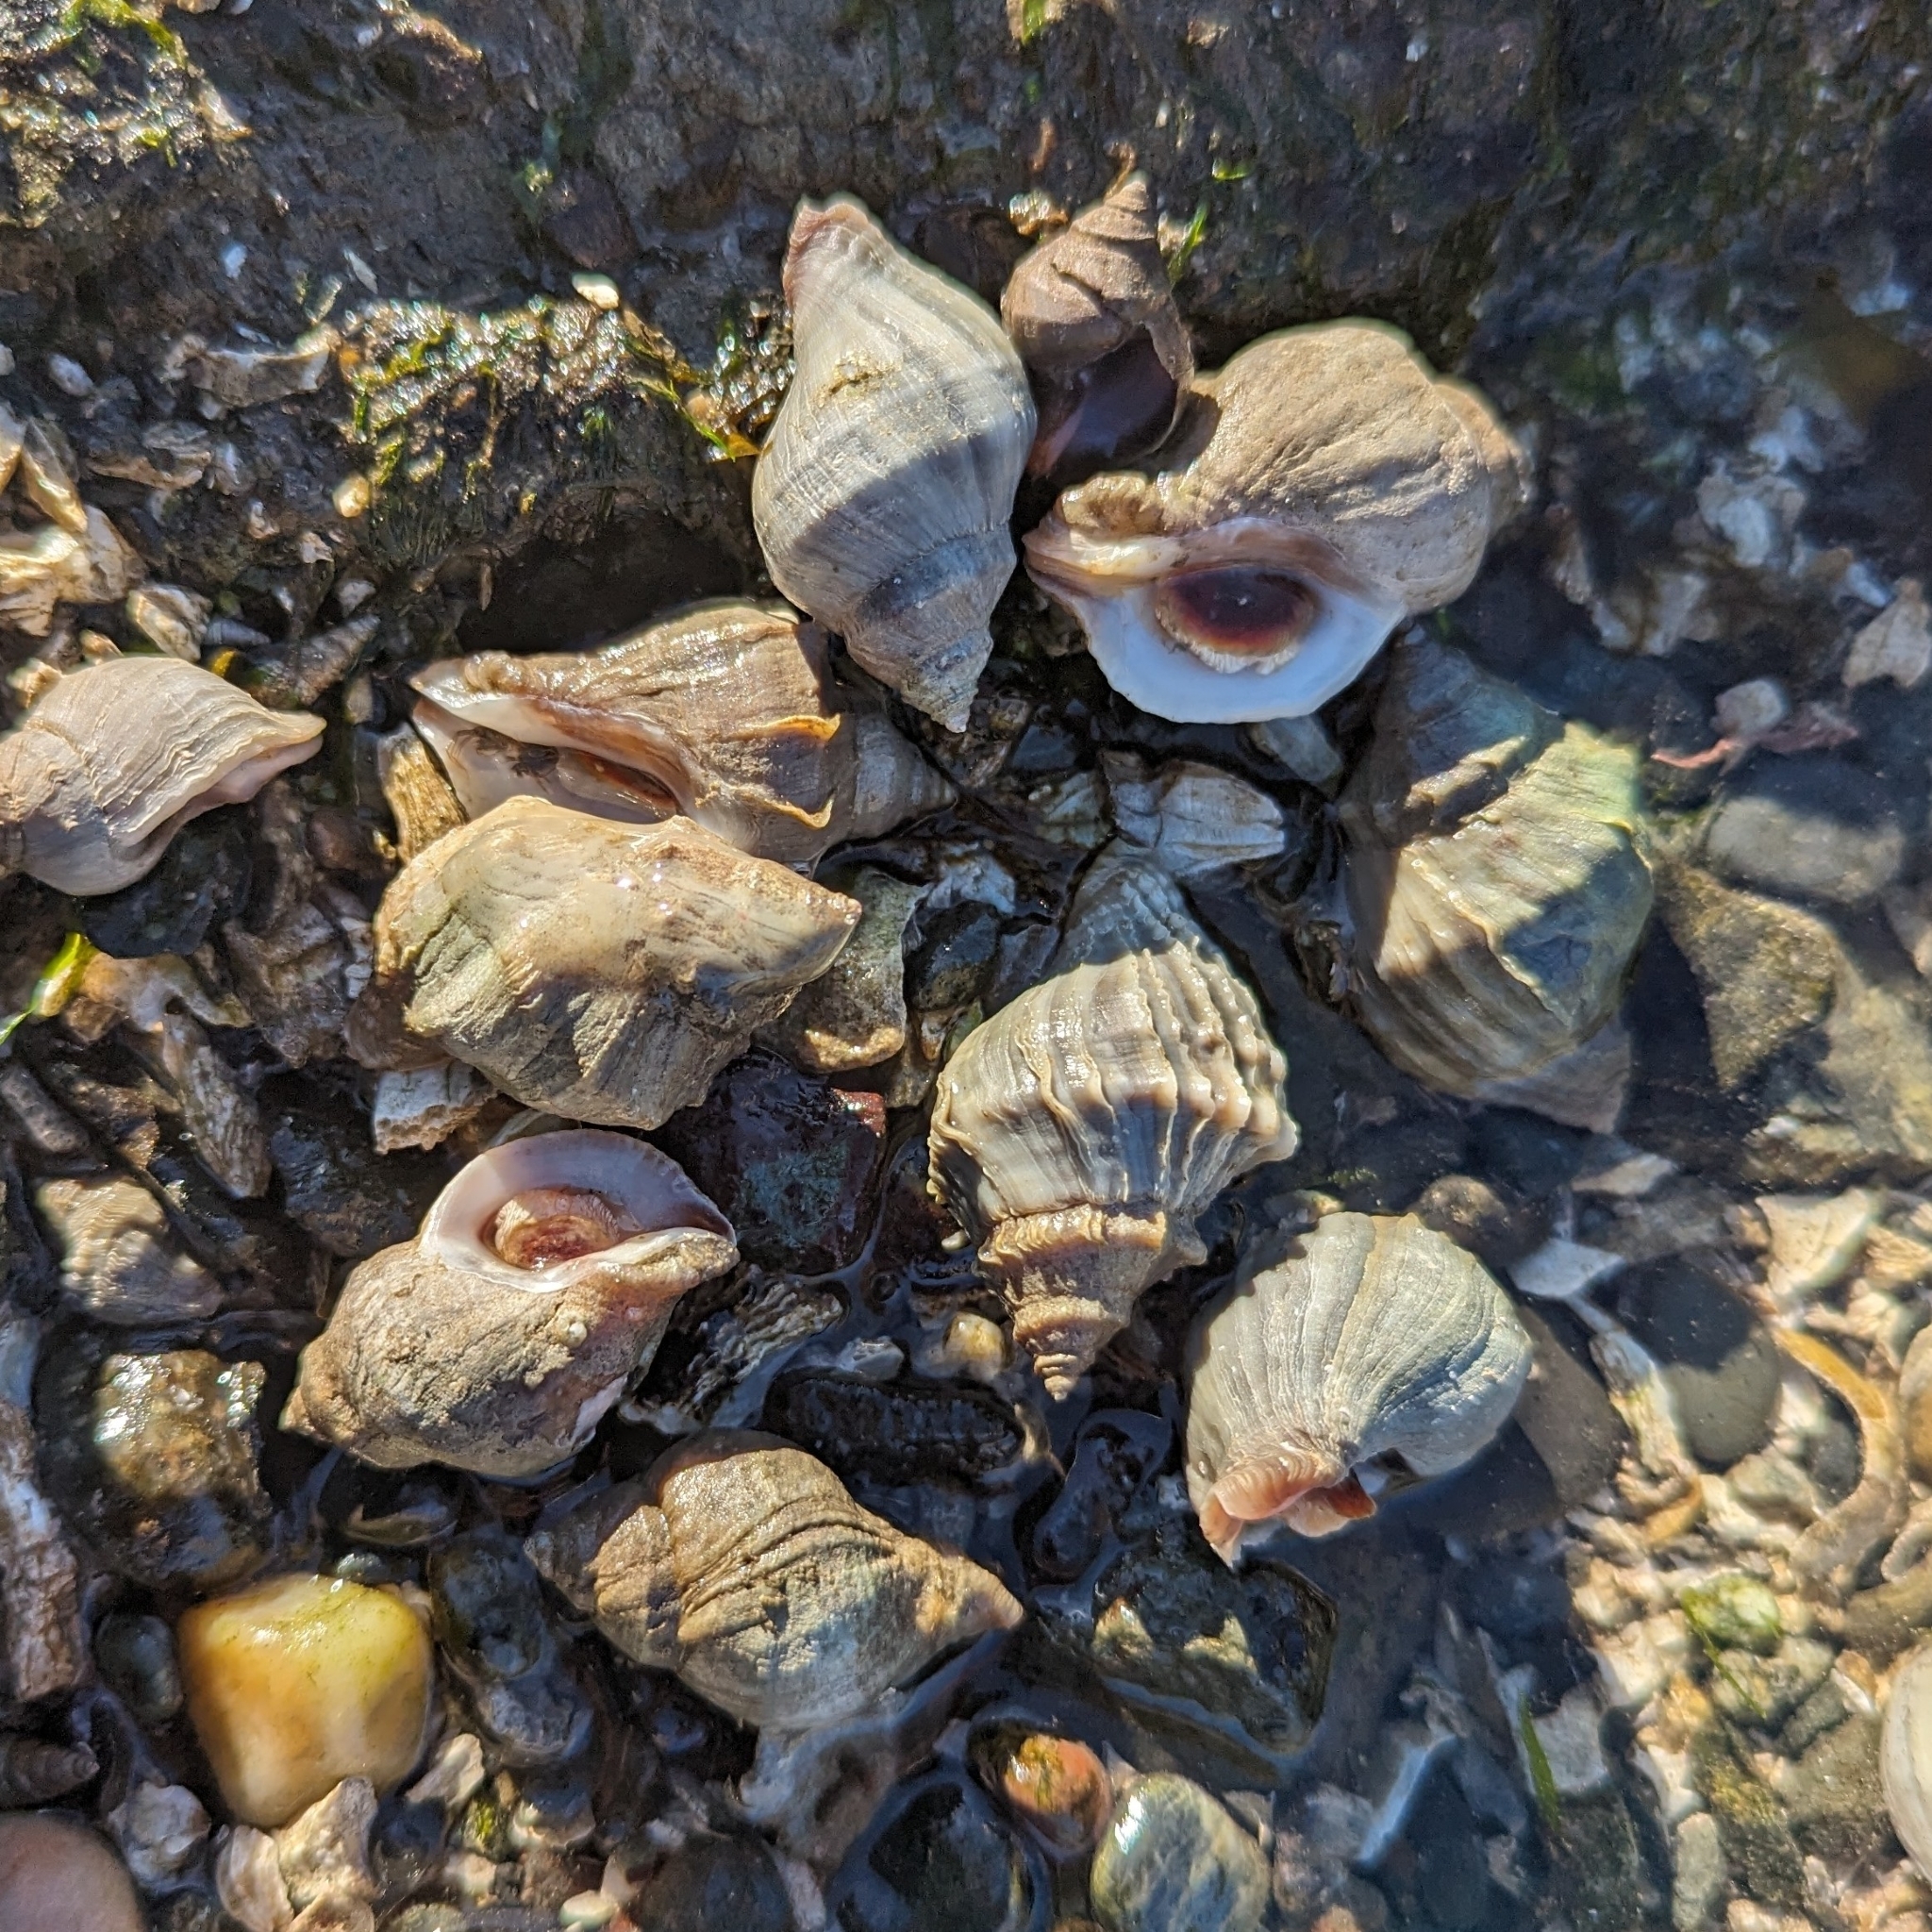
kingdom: Animalia
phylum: Mollusca
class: Gastropoda
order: Neogastropoda
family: Muricidae
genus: Nucella
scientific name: Nucella lamellosa
